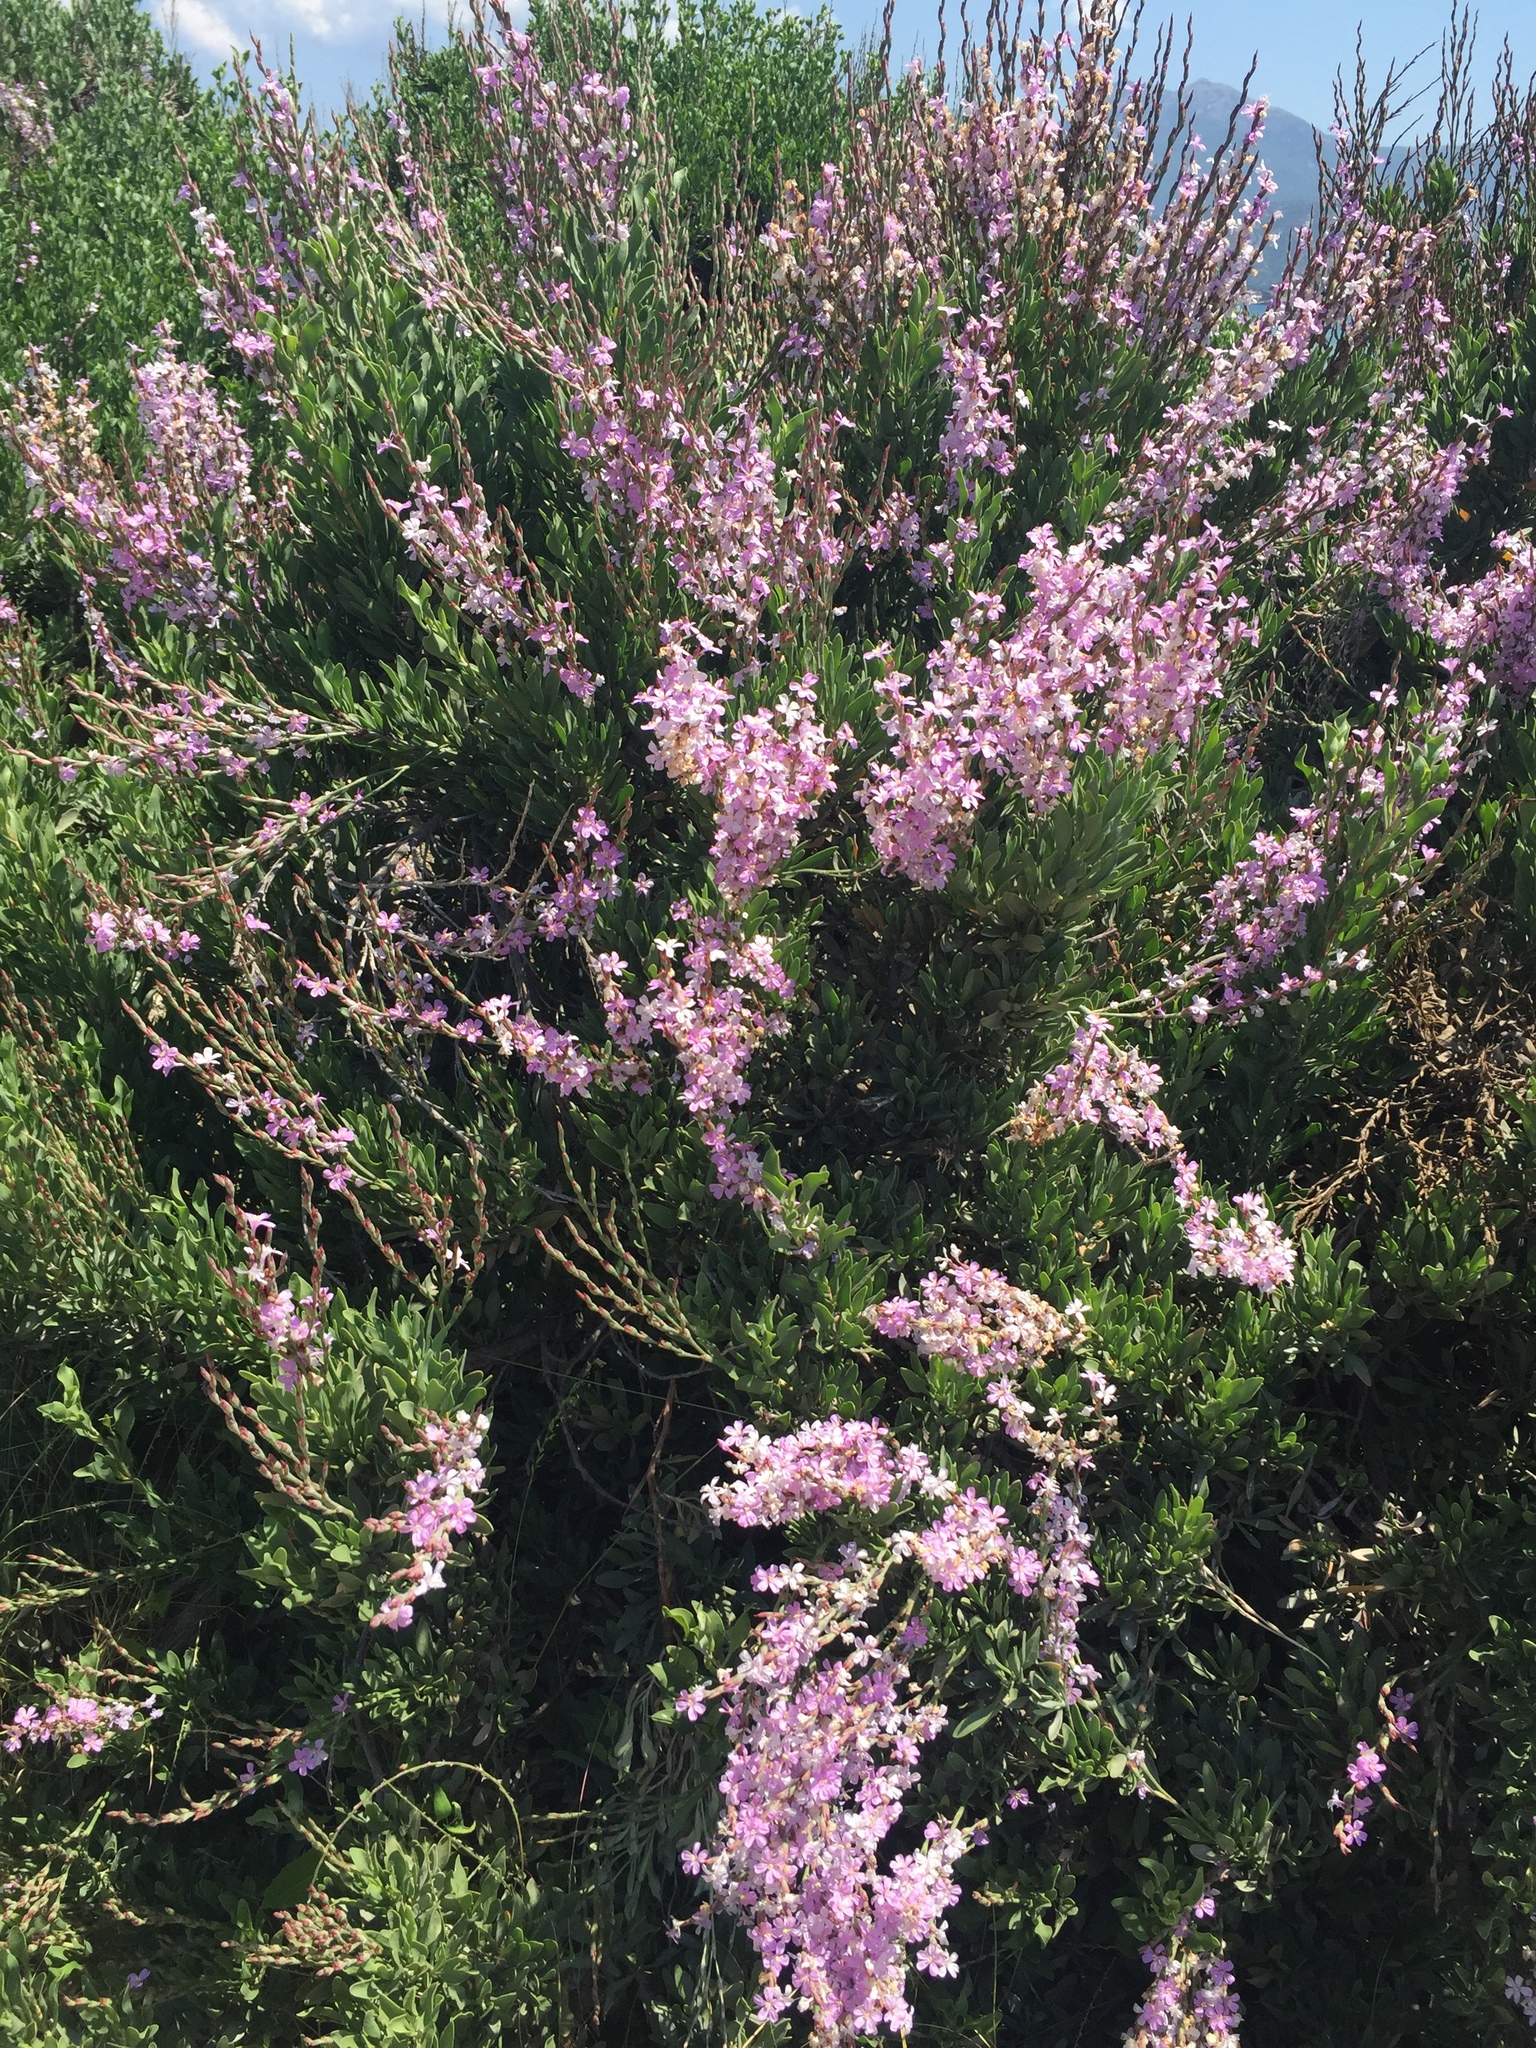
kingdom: Plantae
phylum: Tracheophyta
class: Magnoliopsida
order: Caryophyllales
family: Plumbaginaceae
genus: Limoniastrum
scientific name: Limoniastrum monopetalum
